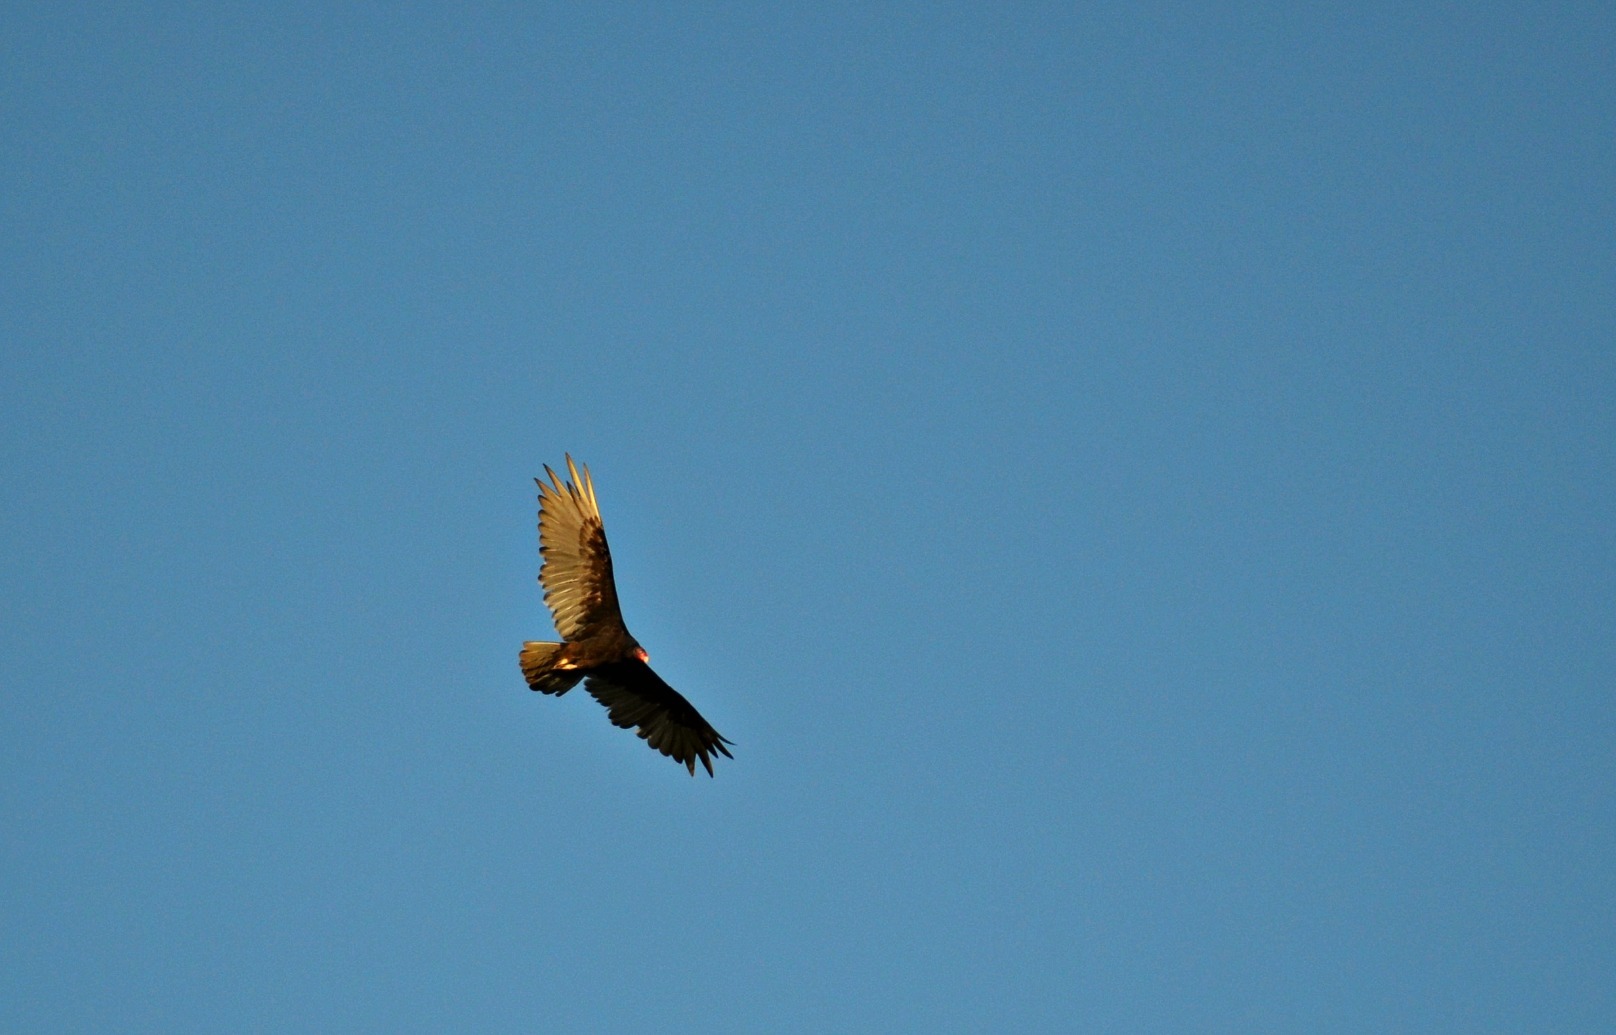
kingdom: Animalia
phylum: Chordata
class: Aves
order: Accipitriformes
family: Cathartidae
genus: Cathartes
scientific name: Cathartes aura
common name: Turkey vulture
